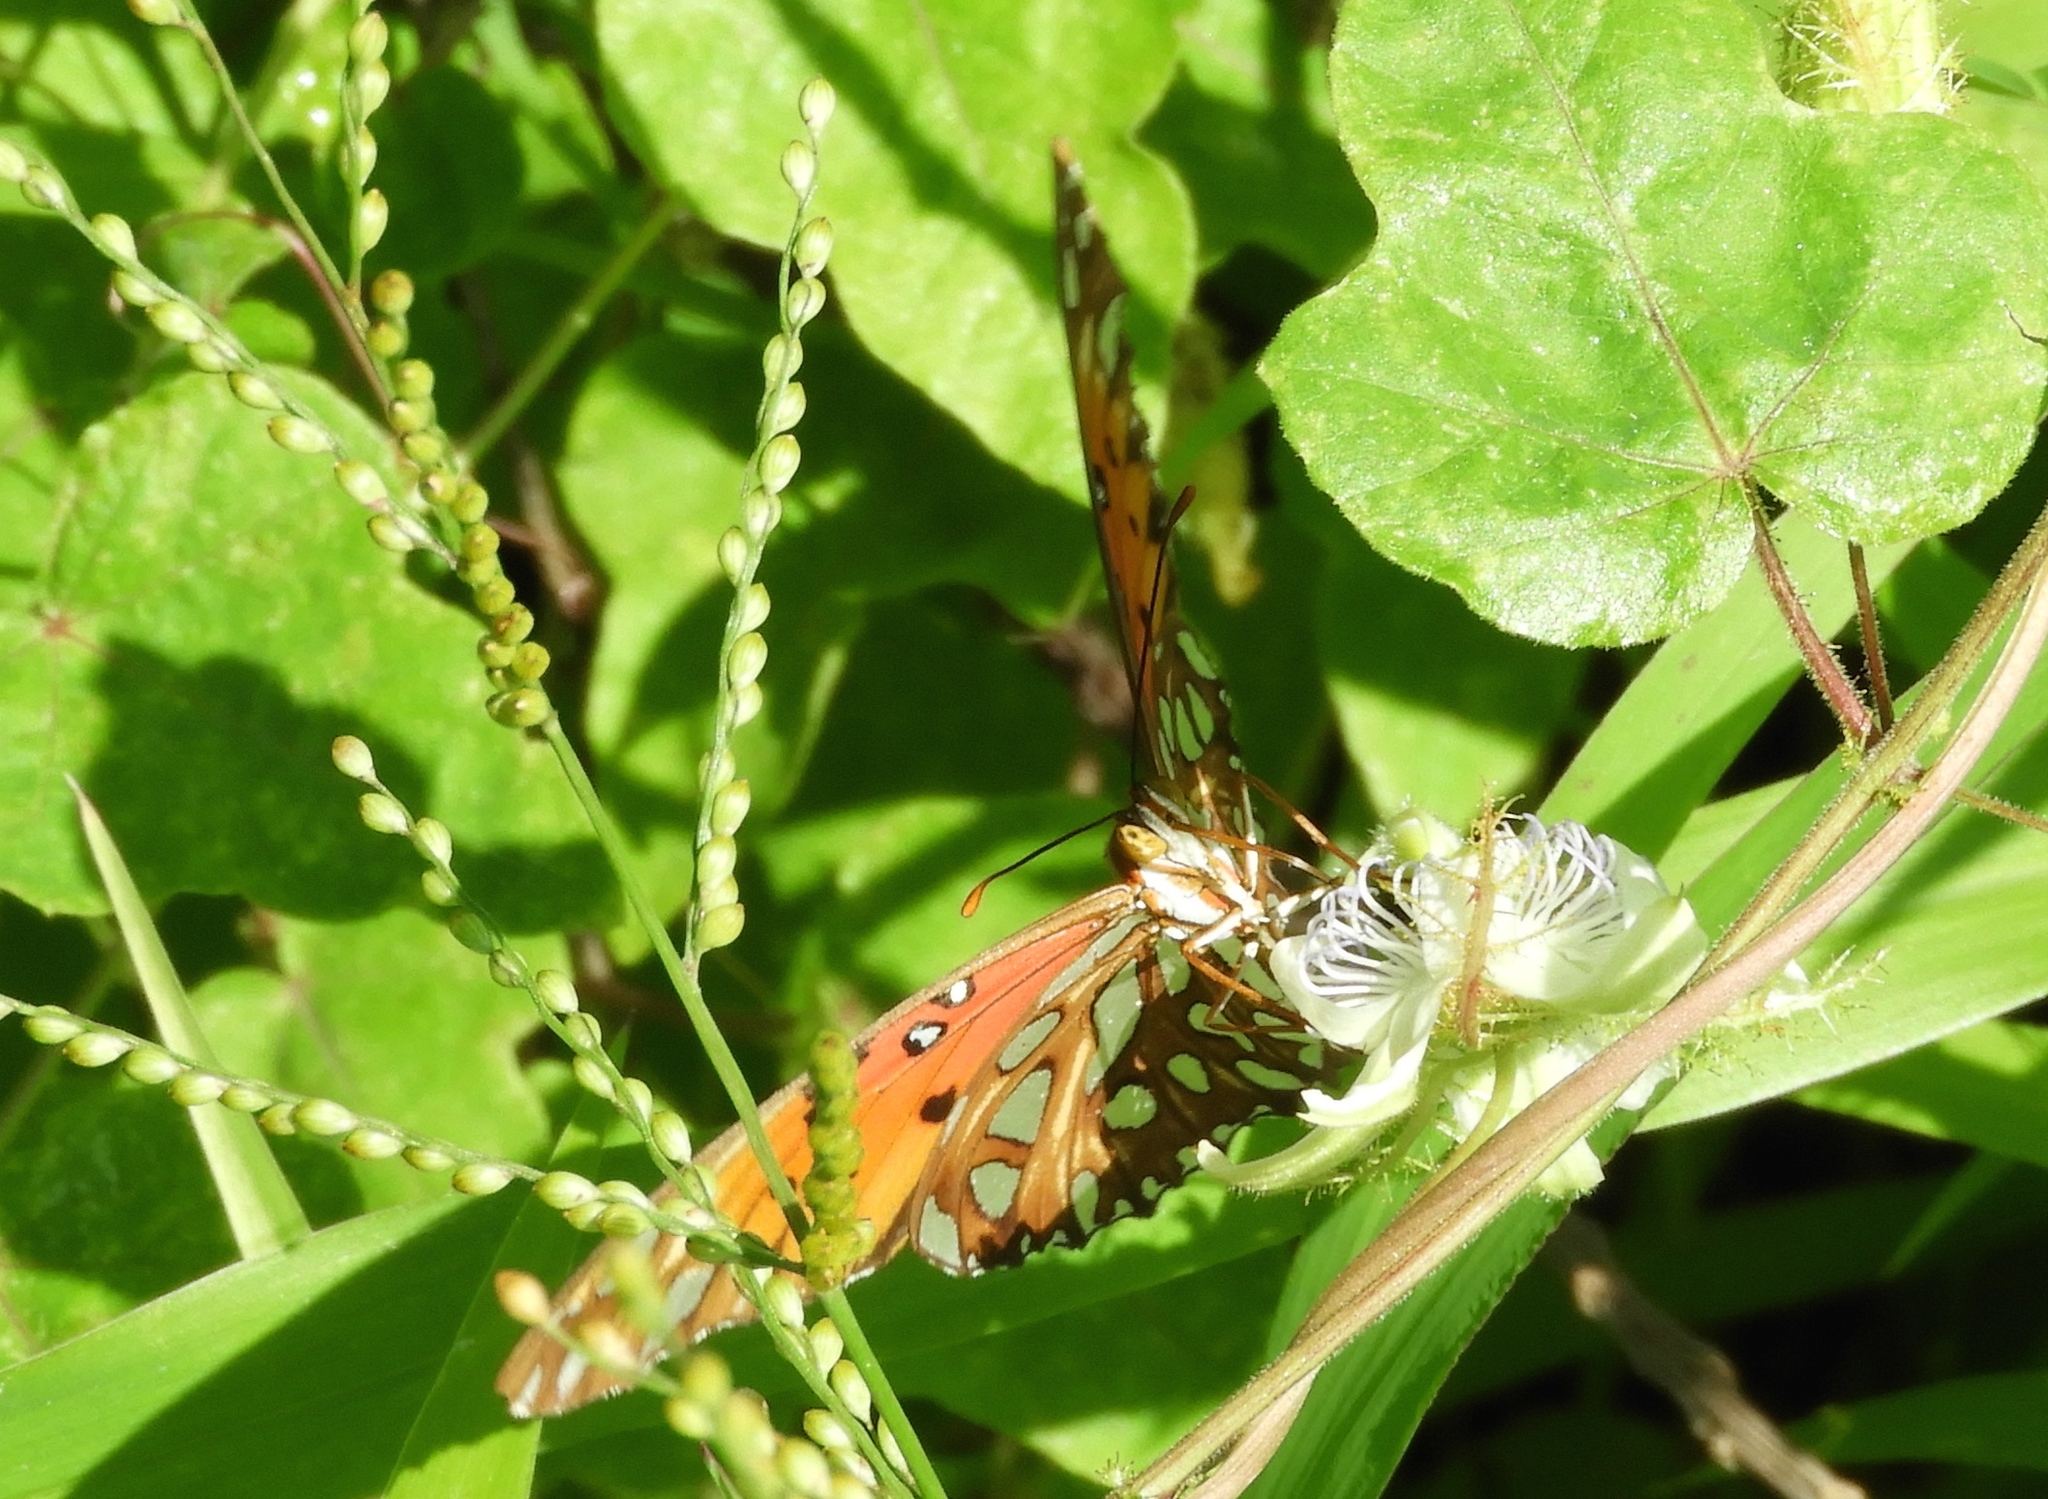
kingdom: Plantae
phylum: Tracheophyta
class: Magnoliopsida
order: Malpighiales
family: Passifloraceae
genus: Passiflora
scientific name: Passiflora foetida
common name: Fetid passionflower
